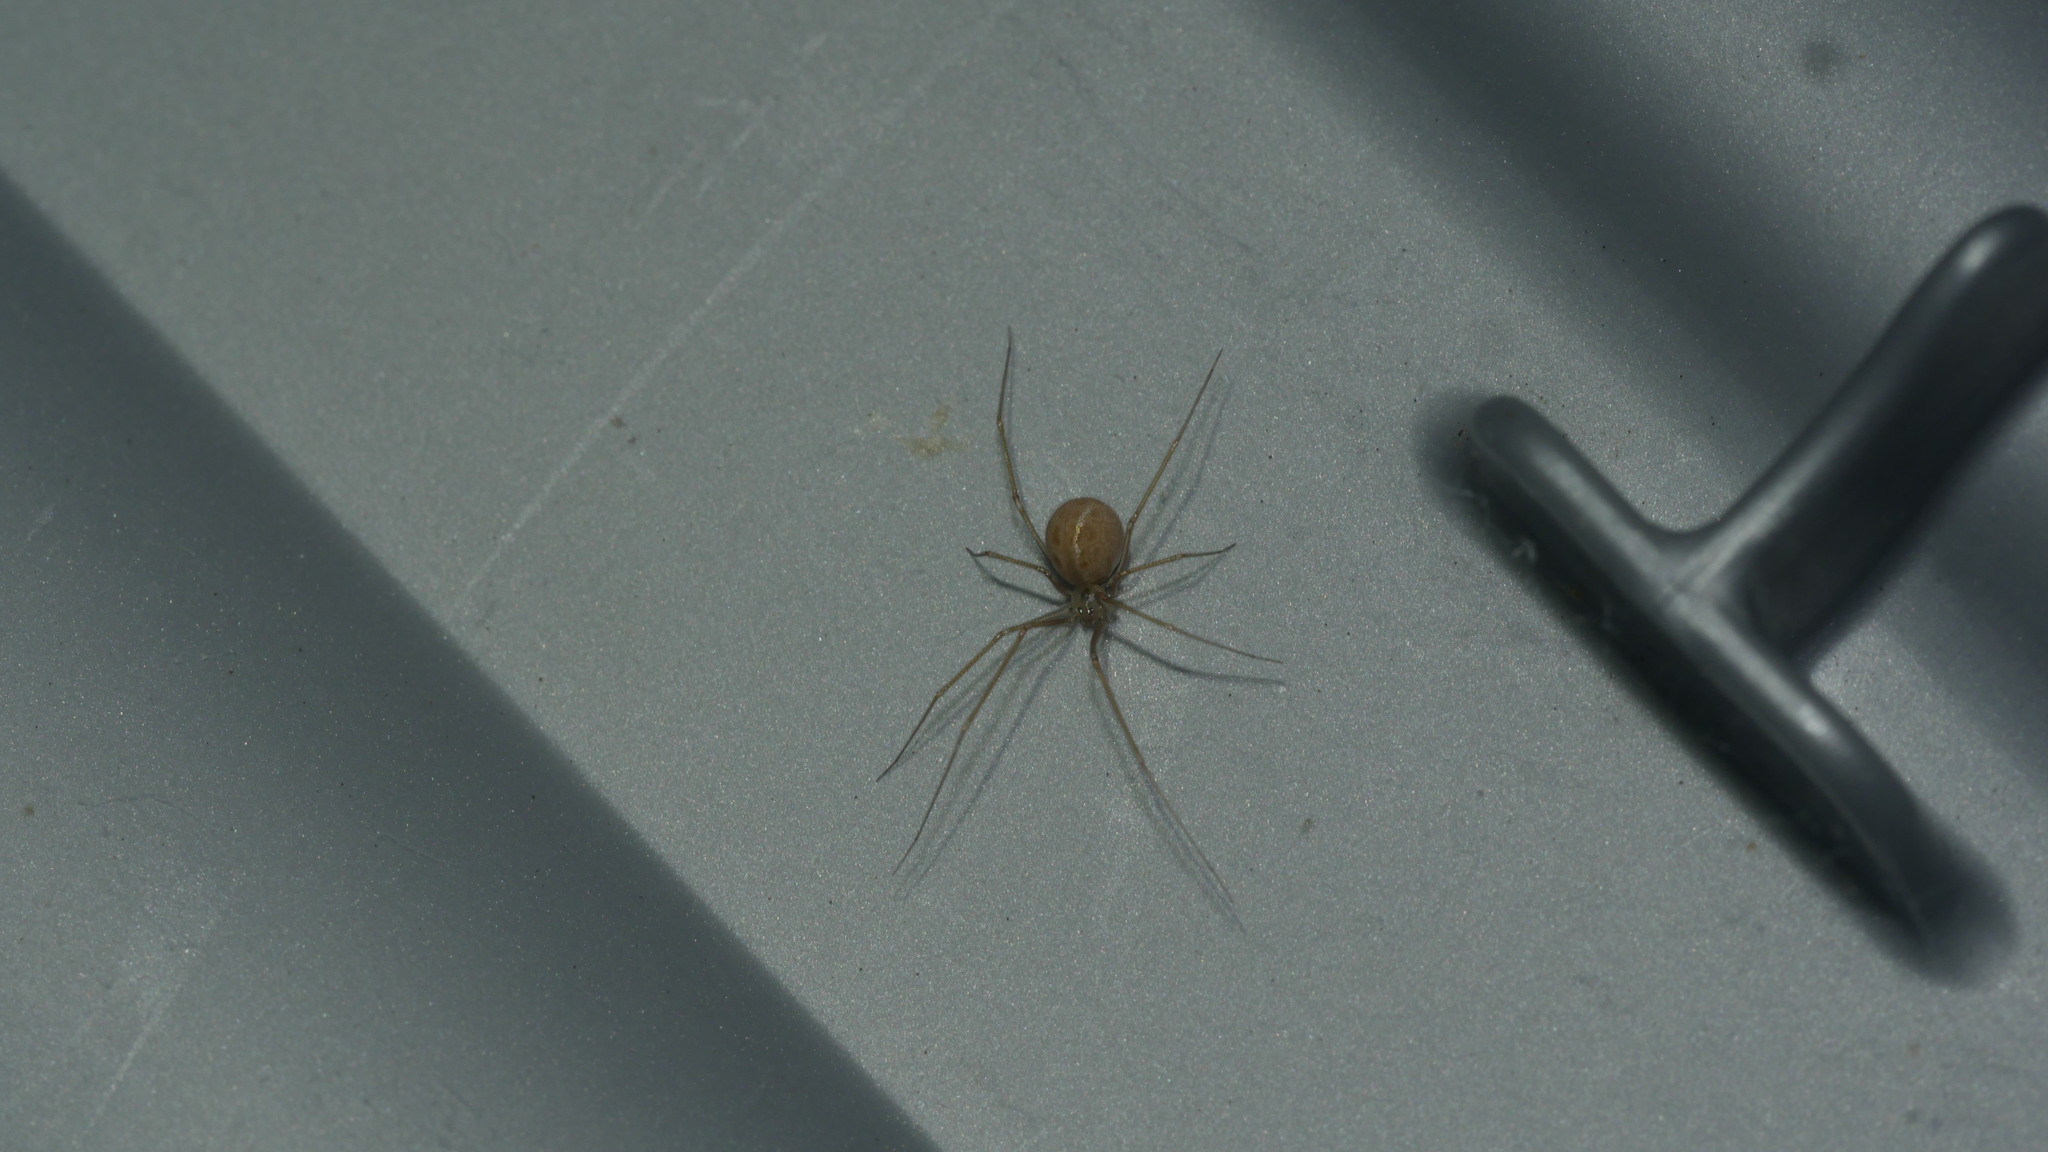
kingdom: Animalia
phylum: Arthropoda
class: Arachnida
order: Araneae
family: Pholcidae
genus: Spermophora
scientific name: Spermophora senoculata
